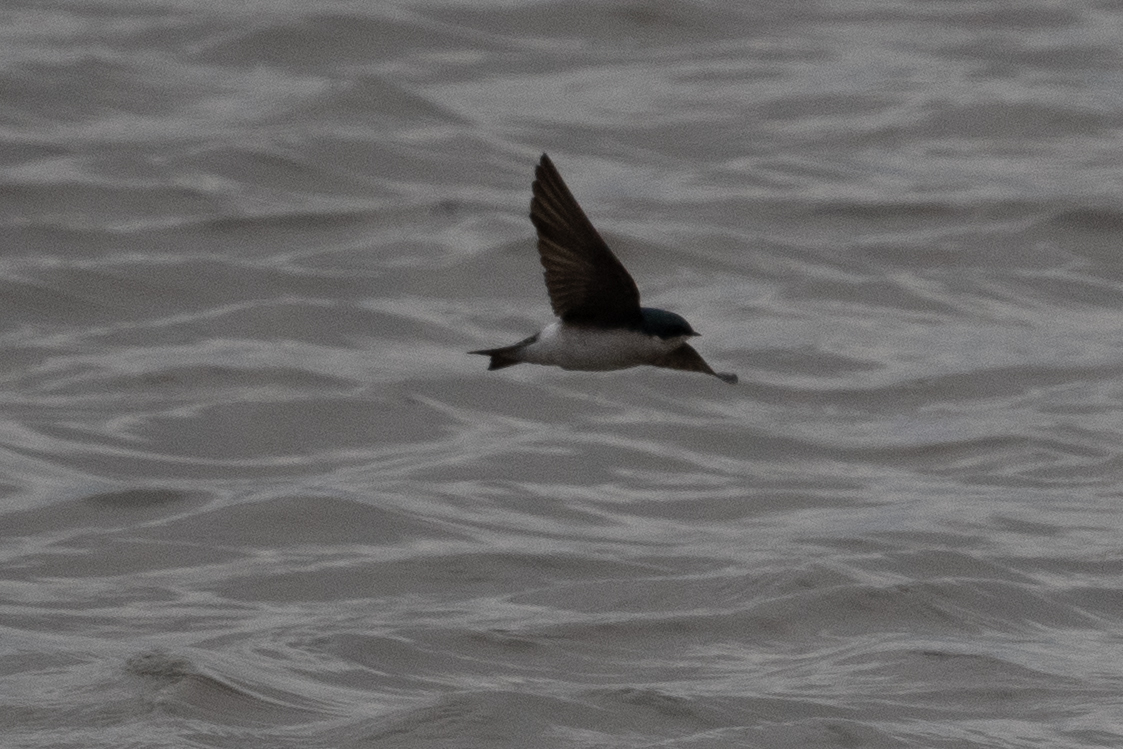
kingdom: Animalia
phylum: Chordata
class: Aves
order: Passeriformes
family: Hirundinidae
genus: Tachycineta
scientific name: Tachycineta bicolor
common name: Tree swallow
